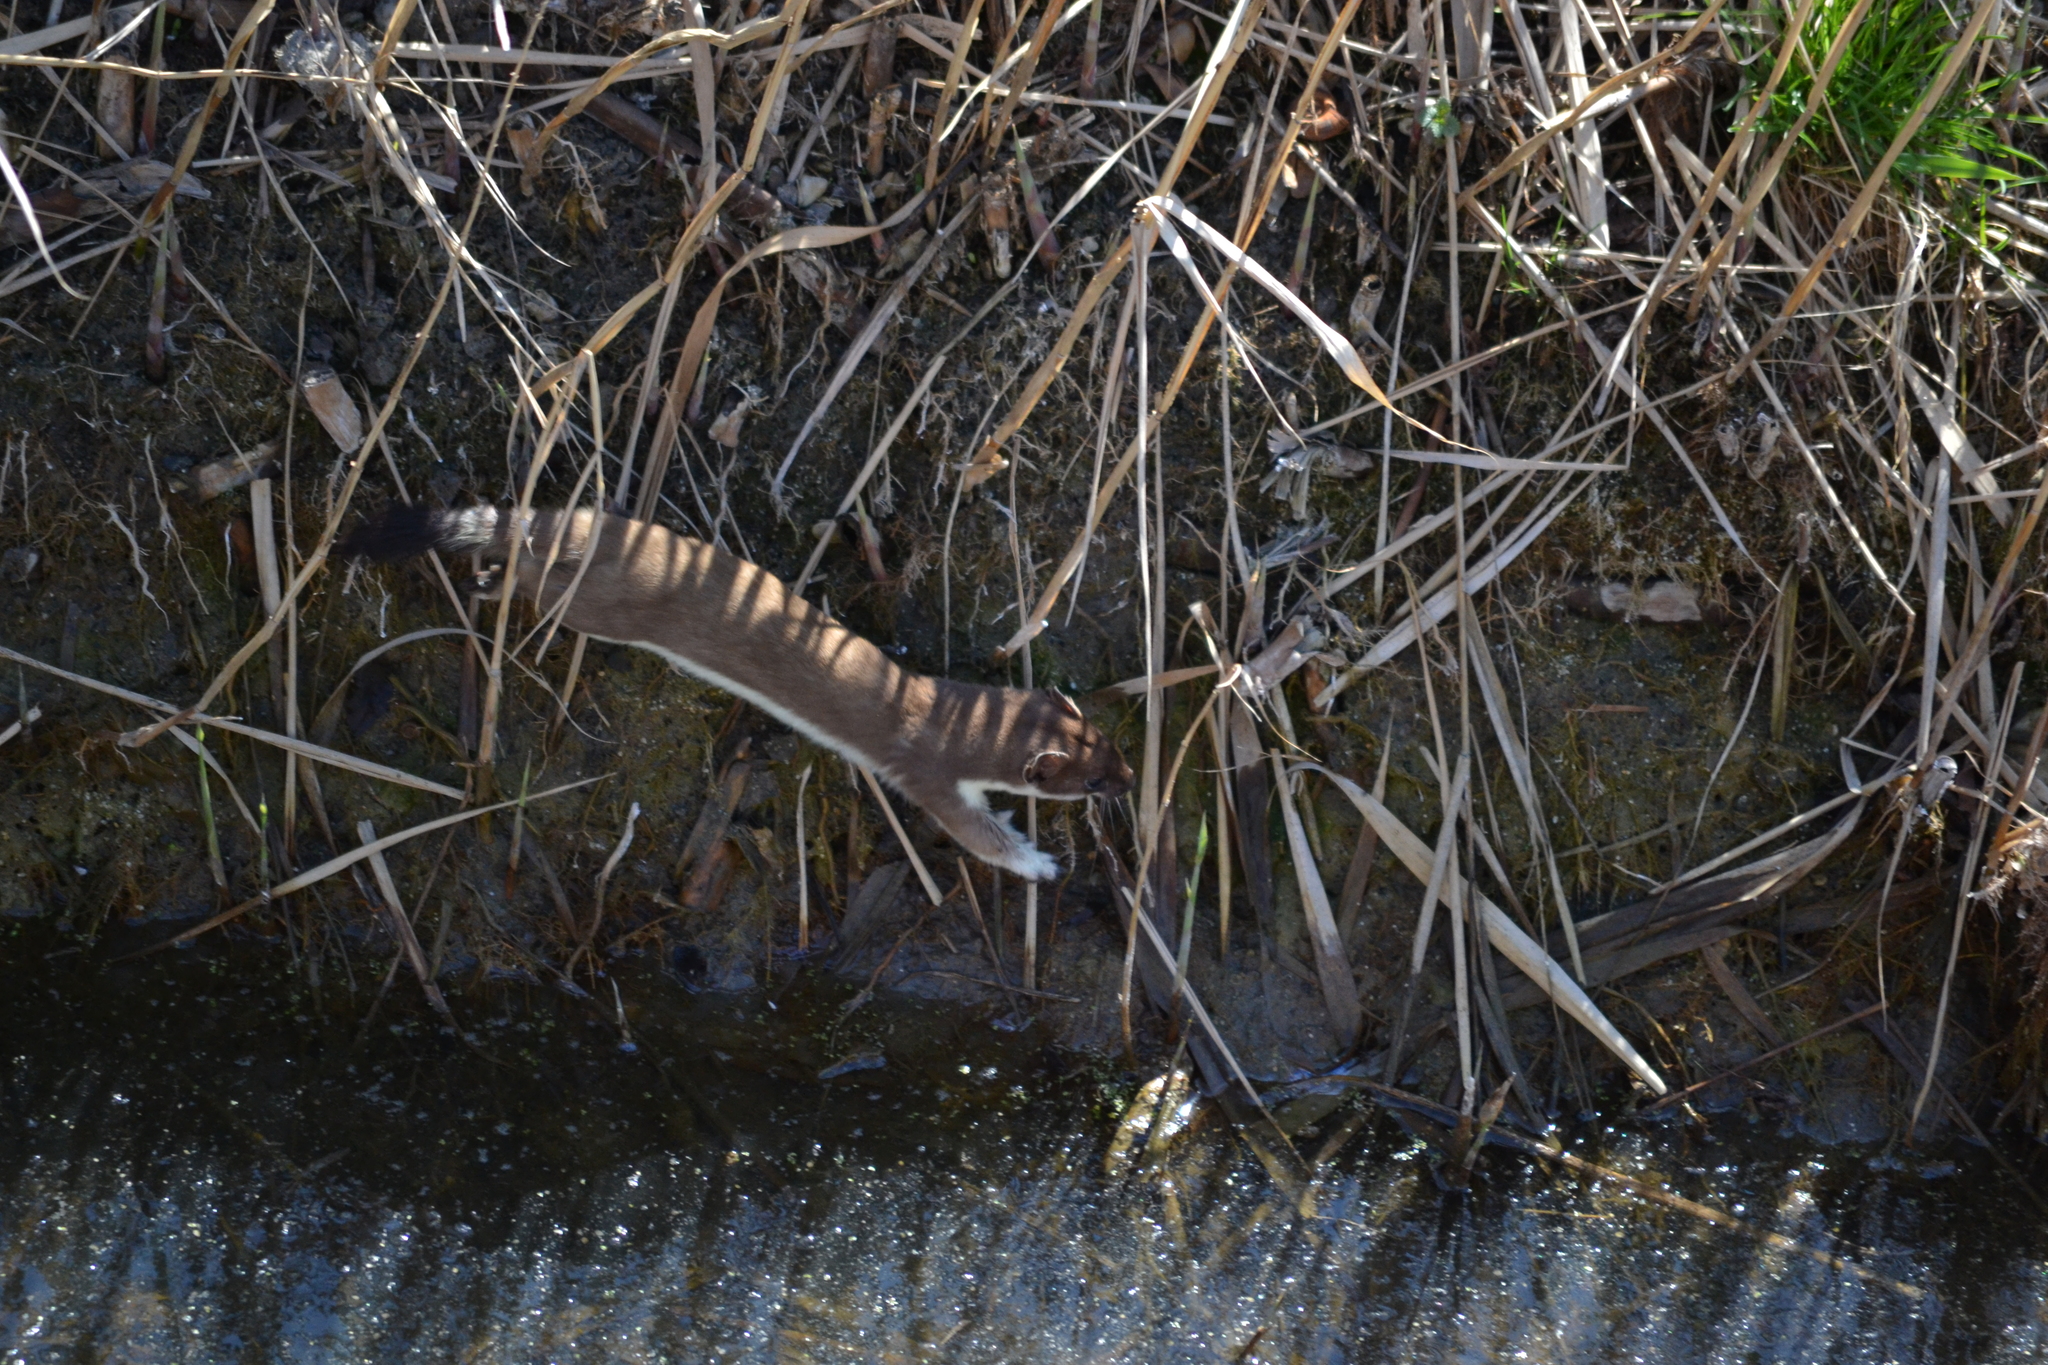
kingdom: Animalia
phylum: Chordata
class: Mammalia
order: Carnivora
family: Mustelidae
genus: Mustela
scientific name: Mustela erminea
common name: Stoat
